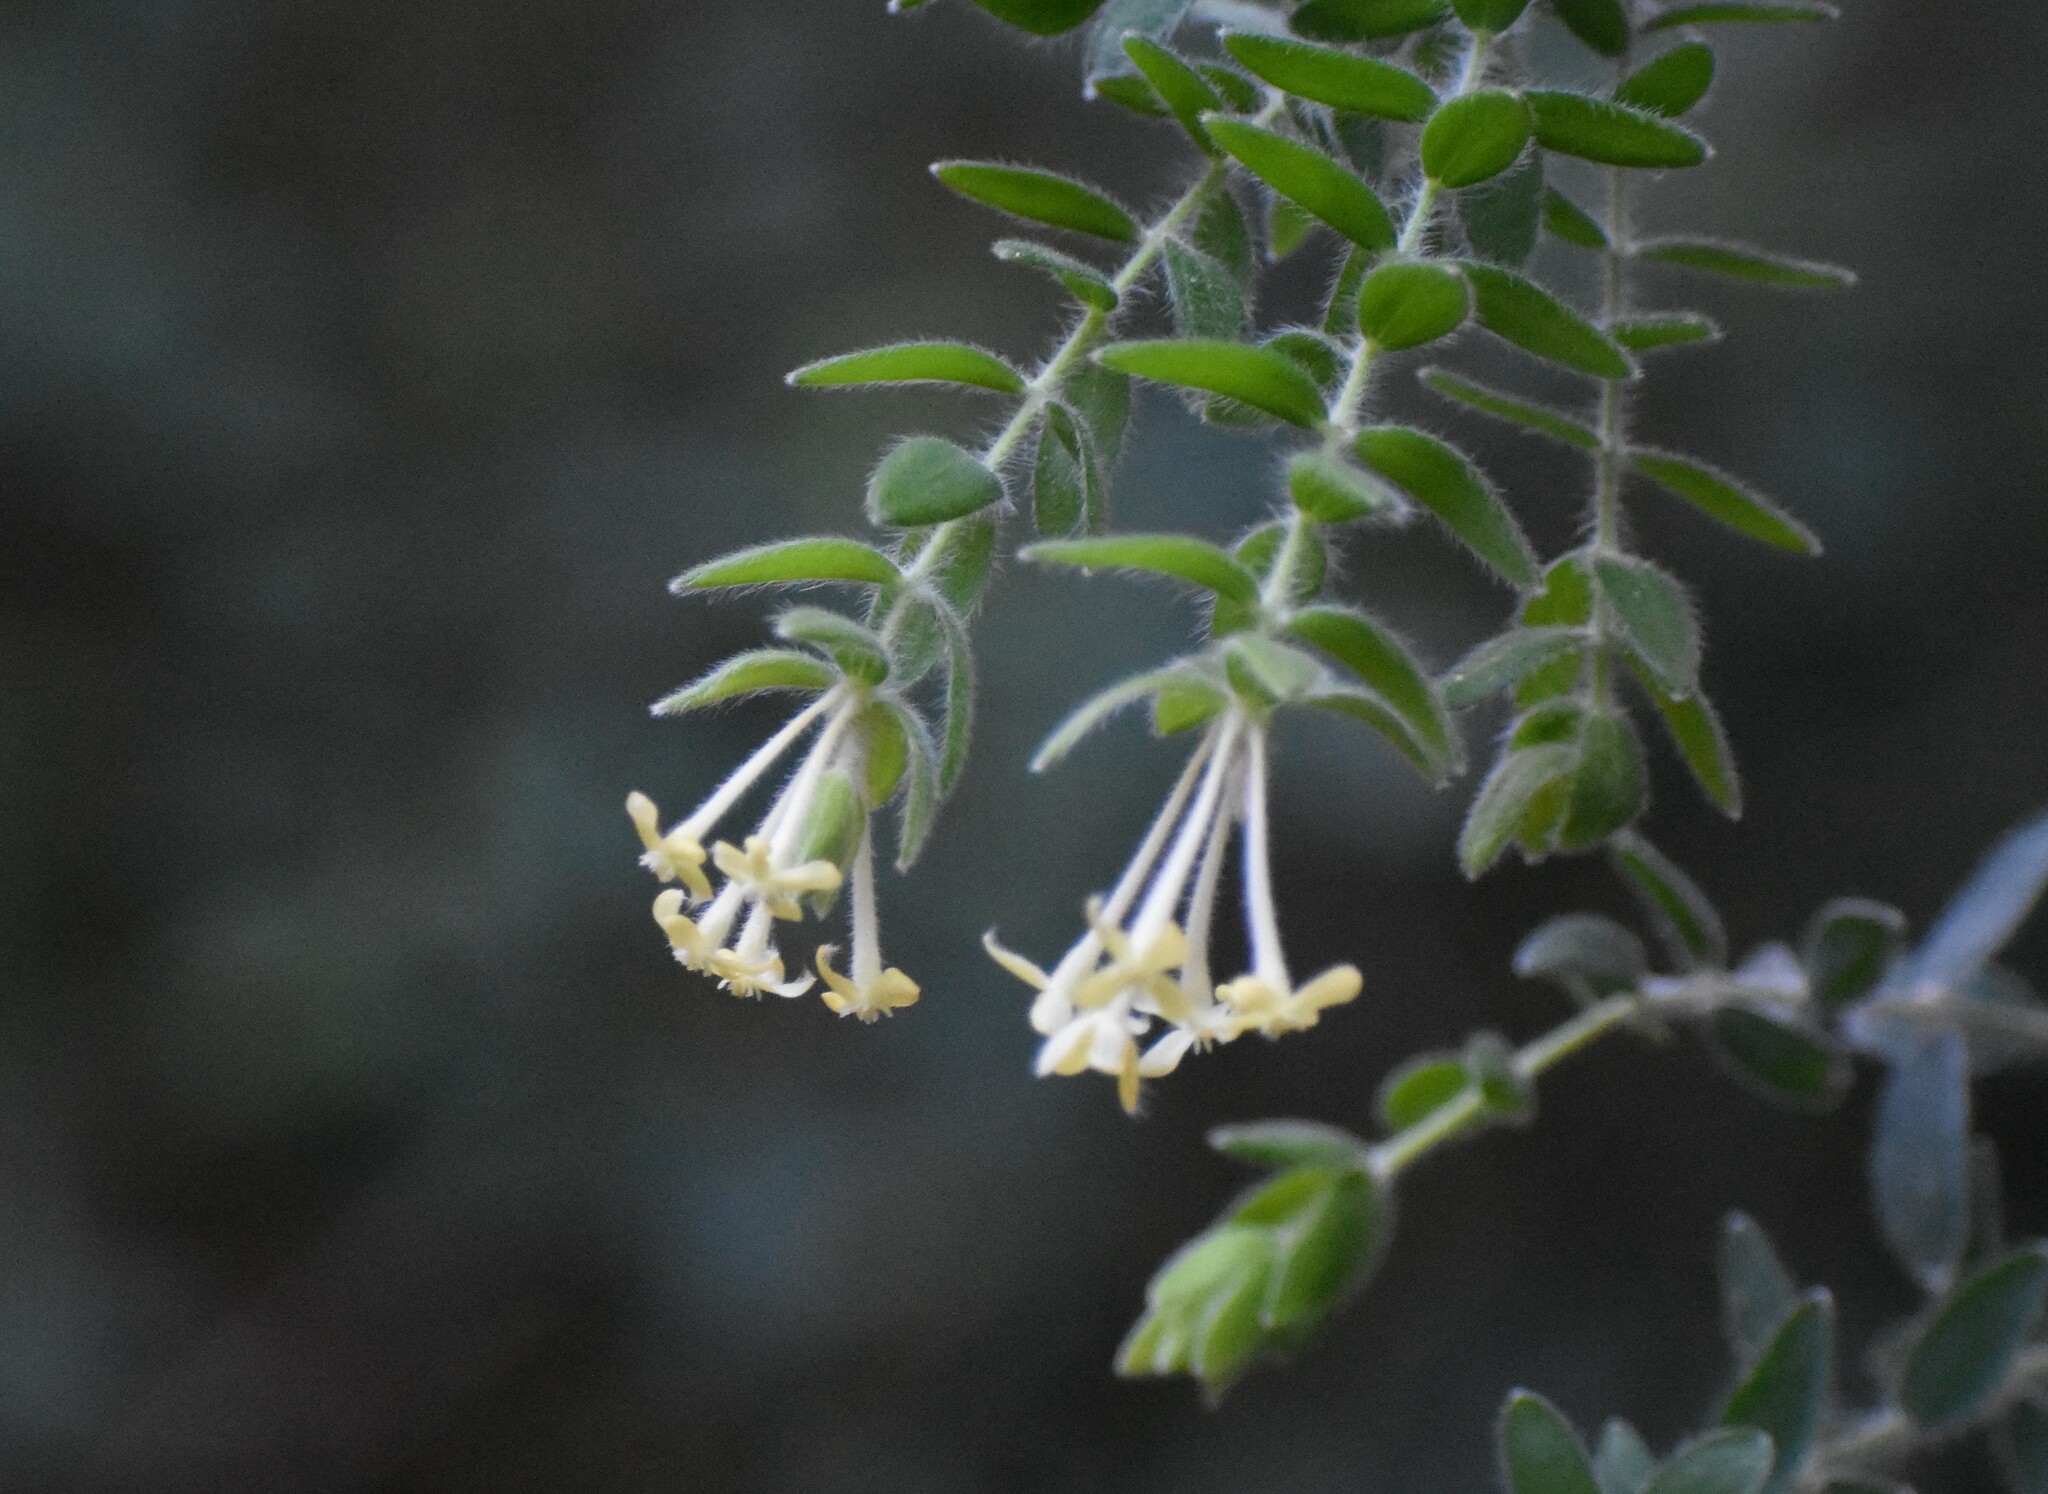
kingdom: Plantae
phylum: Tracheophyta
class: Magnoliopsida
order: Malvales
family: Thymelaeaceae
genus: Gnidia
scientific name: Gnidia
